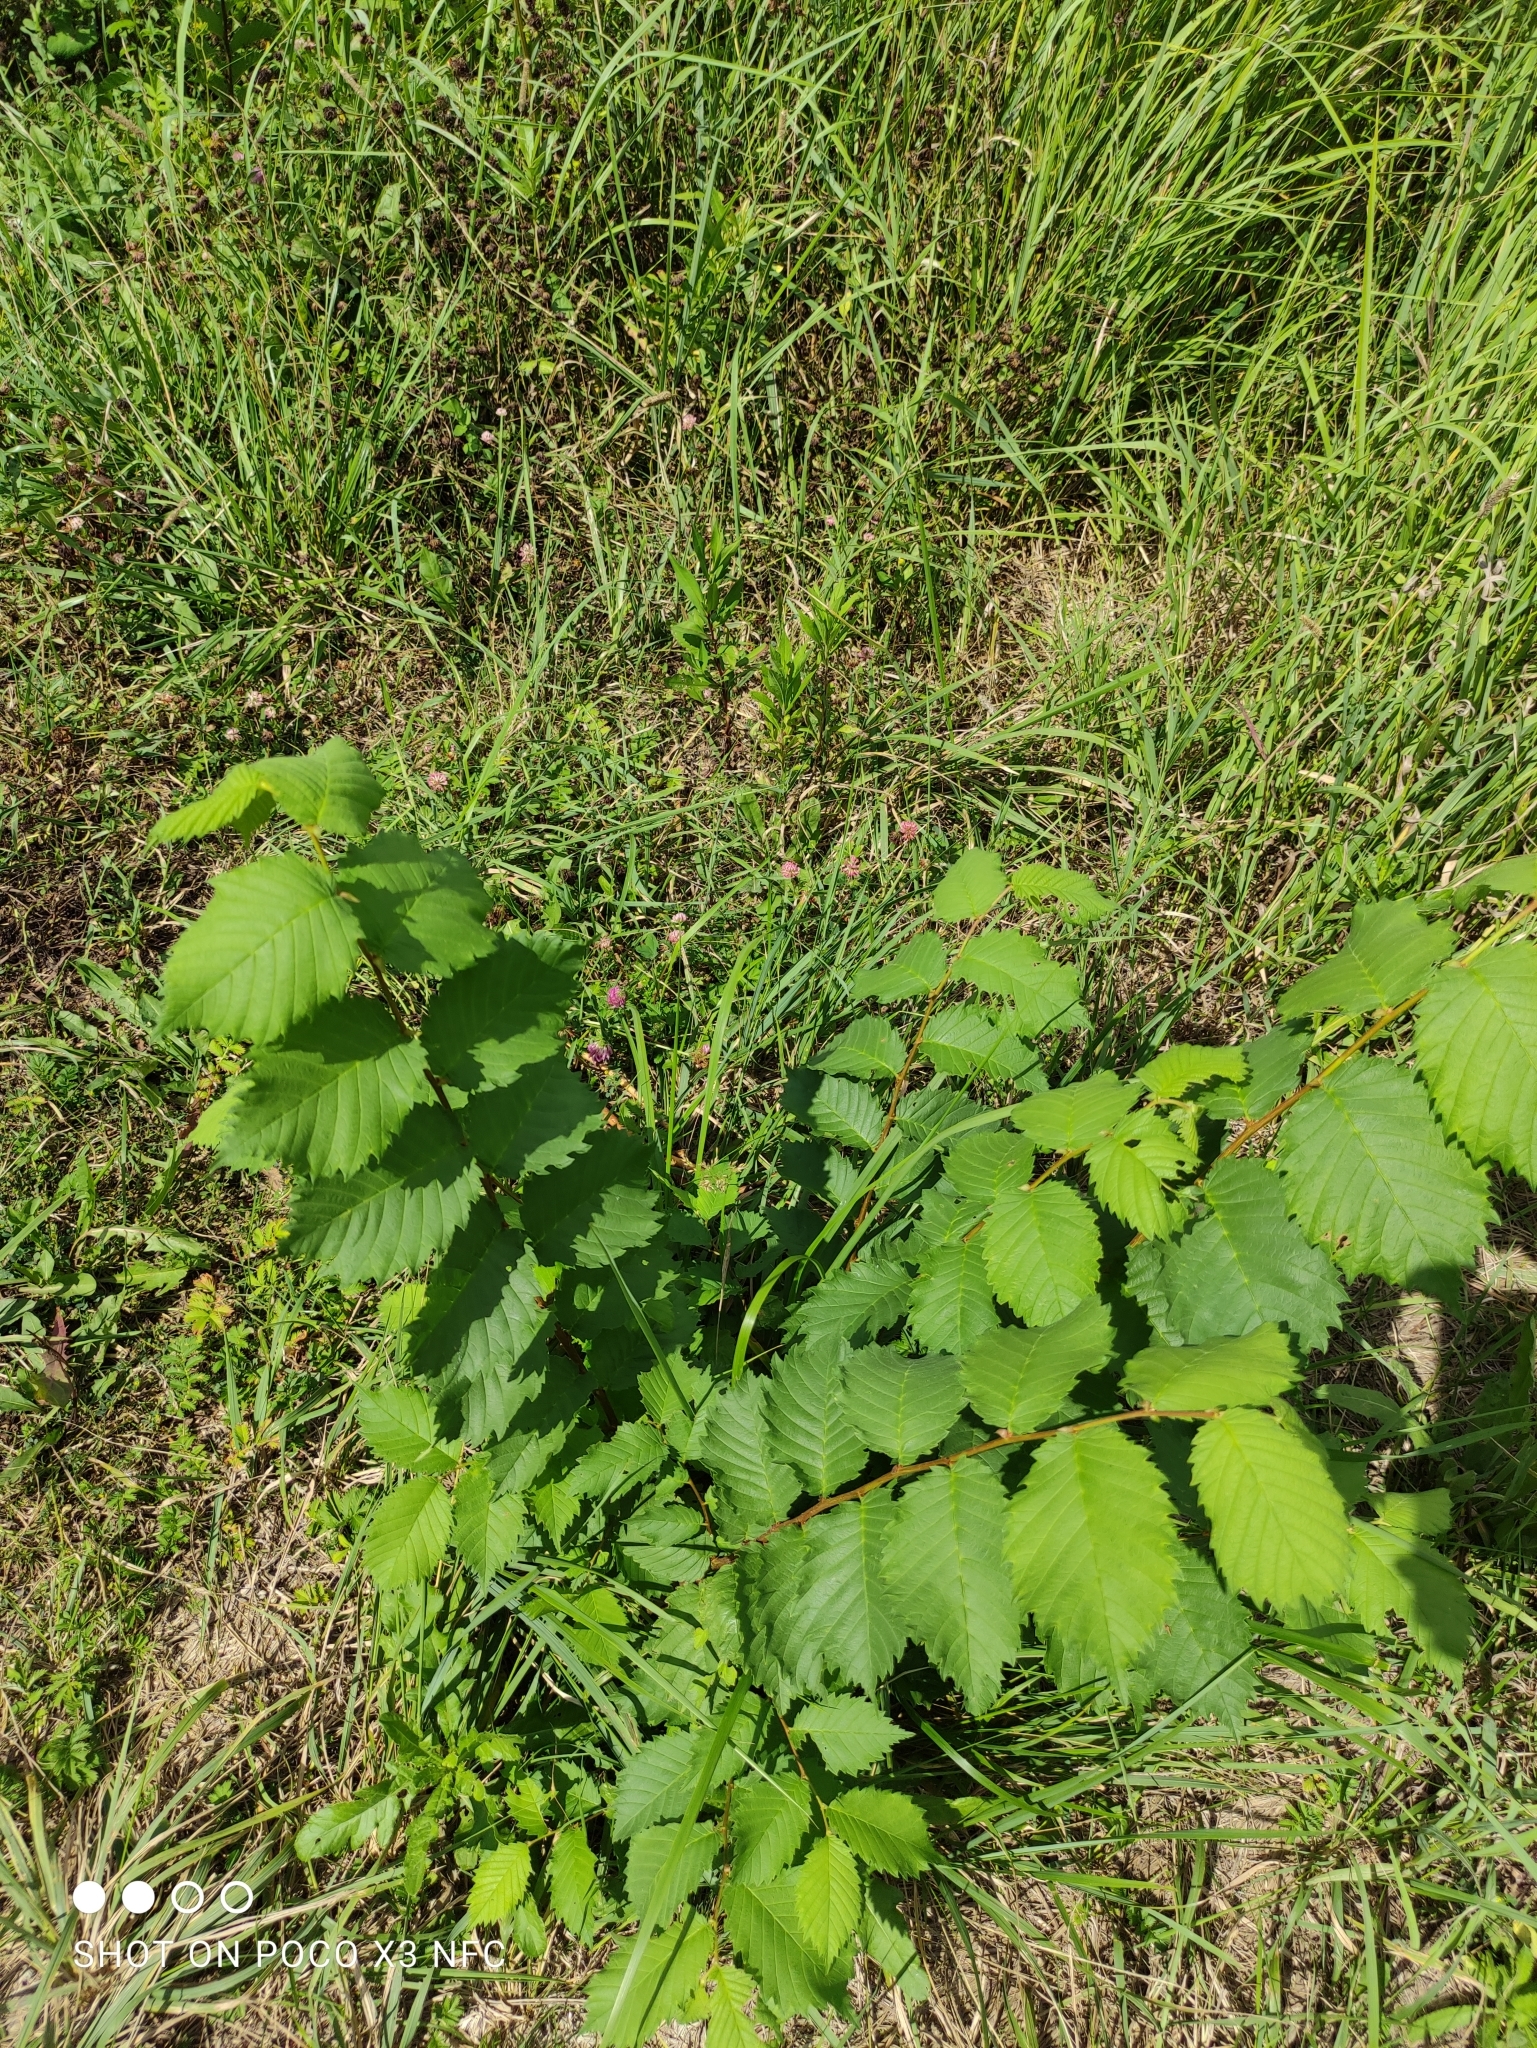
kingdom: Plantae
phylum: Tracheophyta
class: Magnoliopsida
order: Rosales
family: Ulmaceae
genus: Ulmus
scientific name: Ulmus laevis
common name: European white-elm
